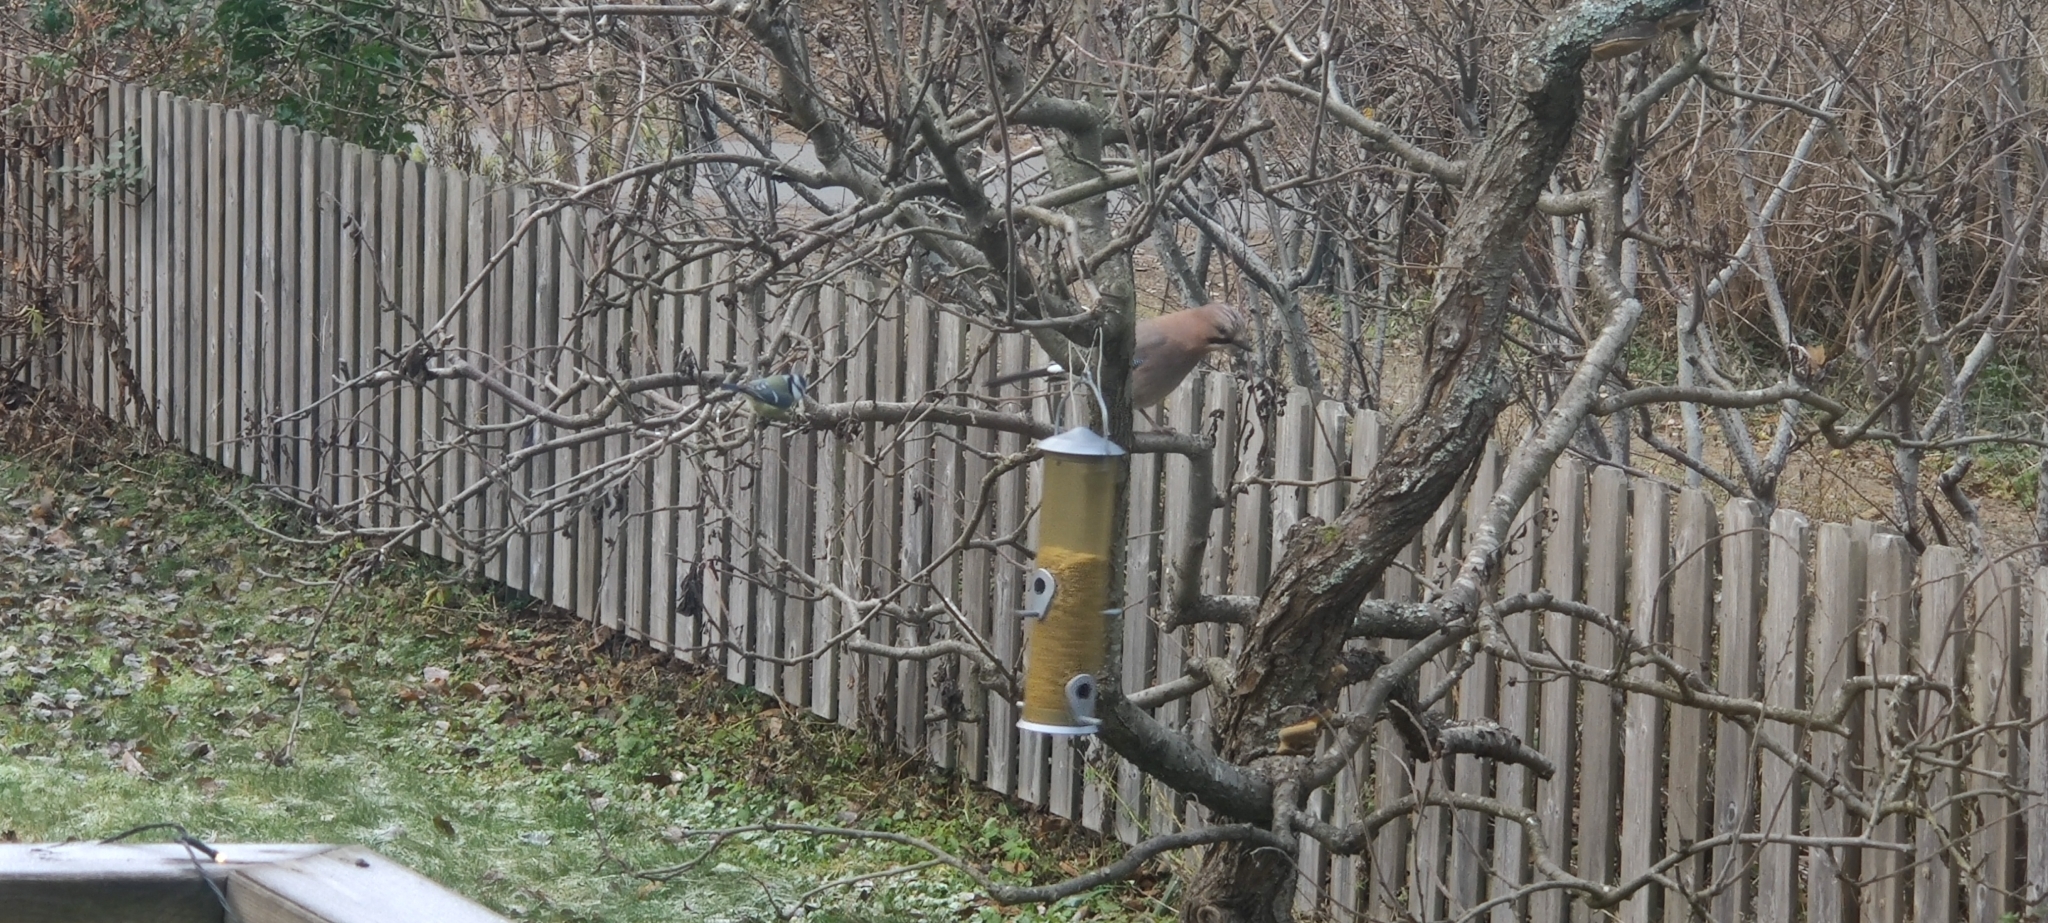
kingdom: Animalia
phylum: Chordata
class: Aves
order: Passeriformes
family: Corvidae
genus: Garrulus
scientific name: Garrulus glandarius
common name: Eurasian jay
